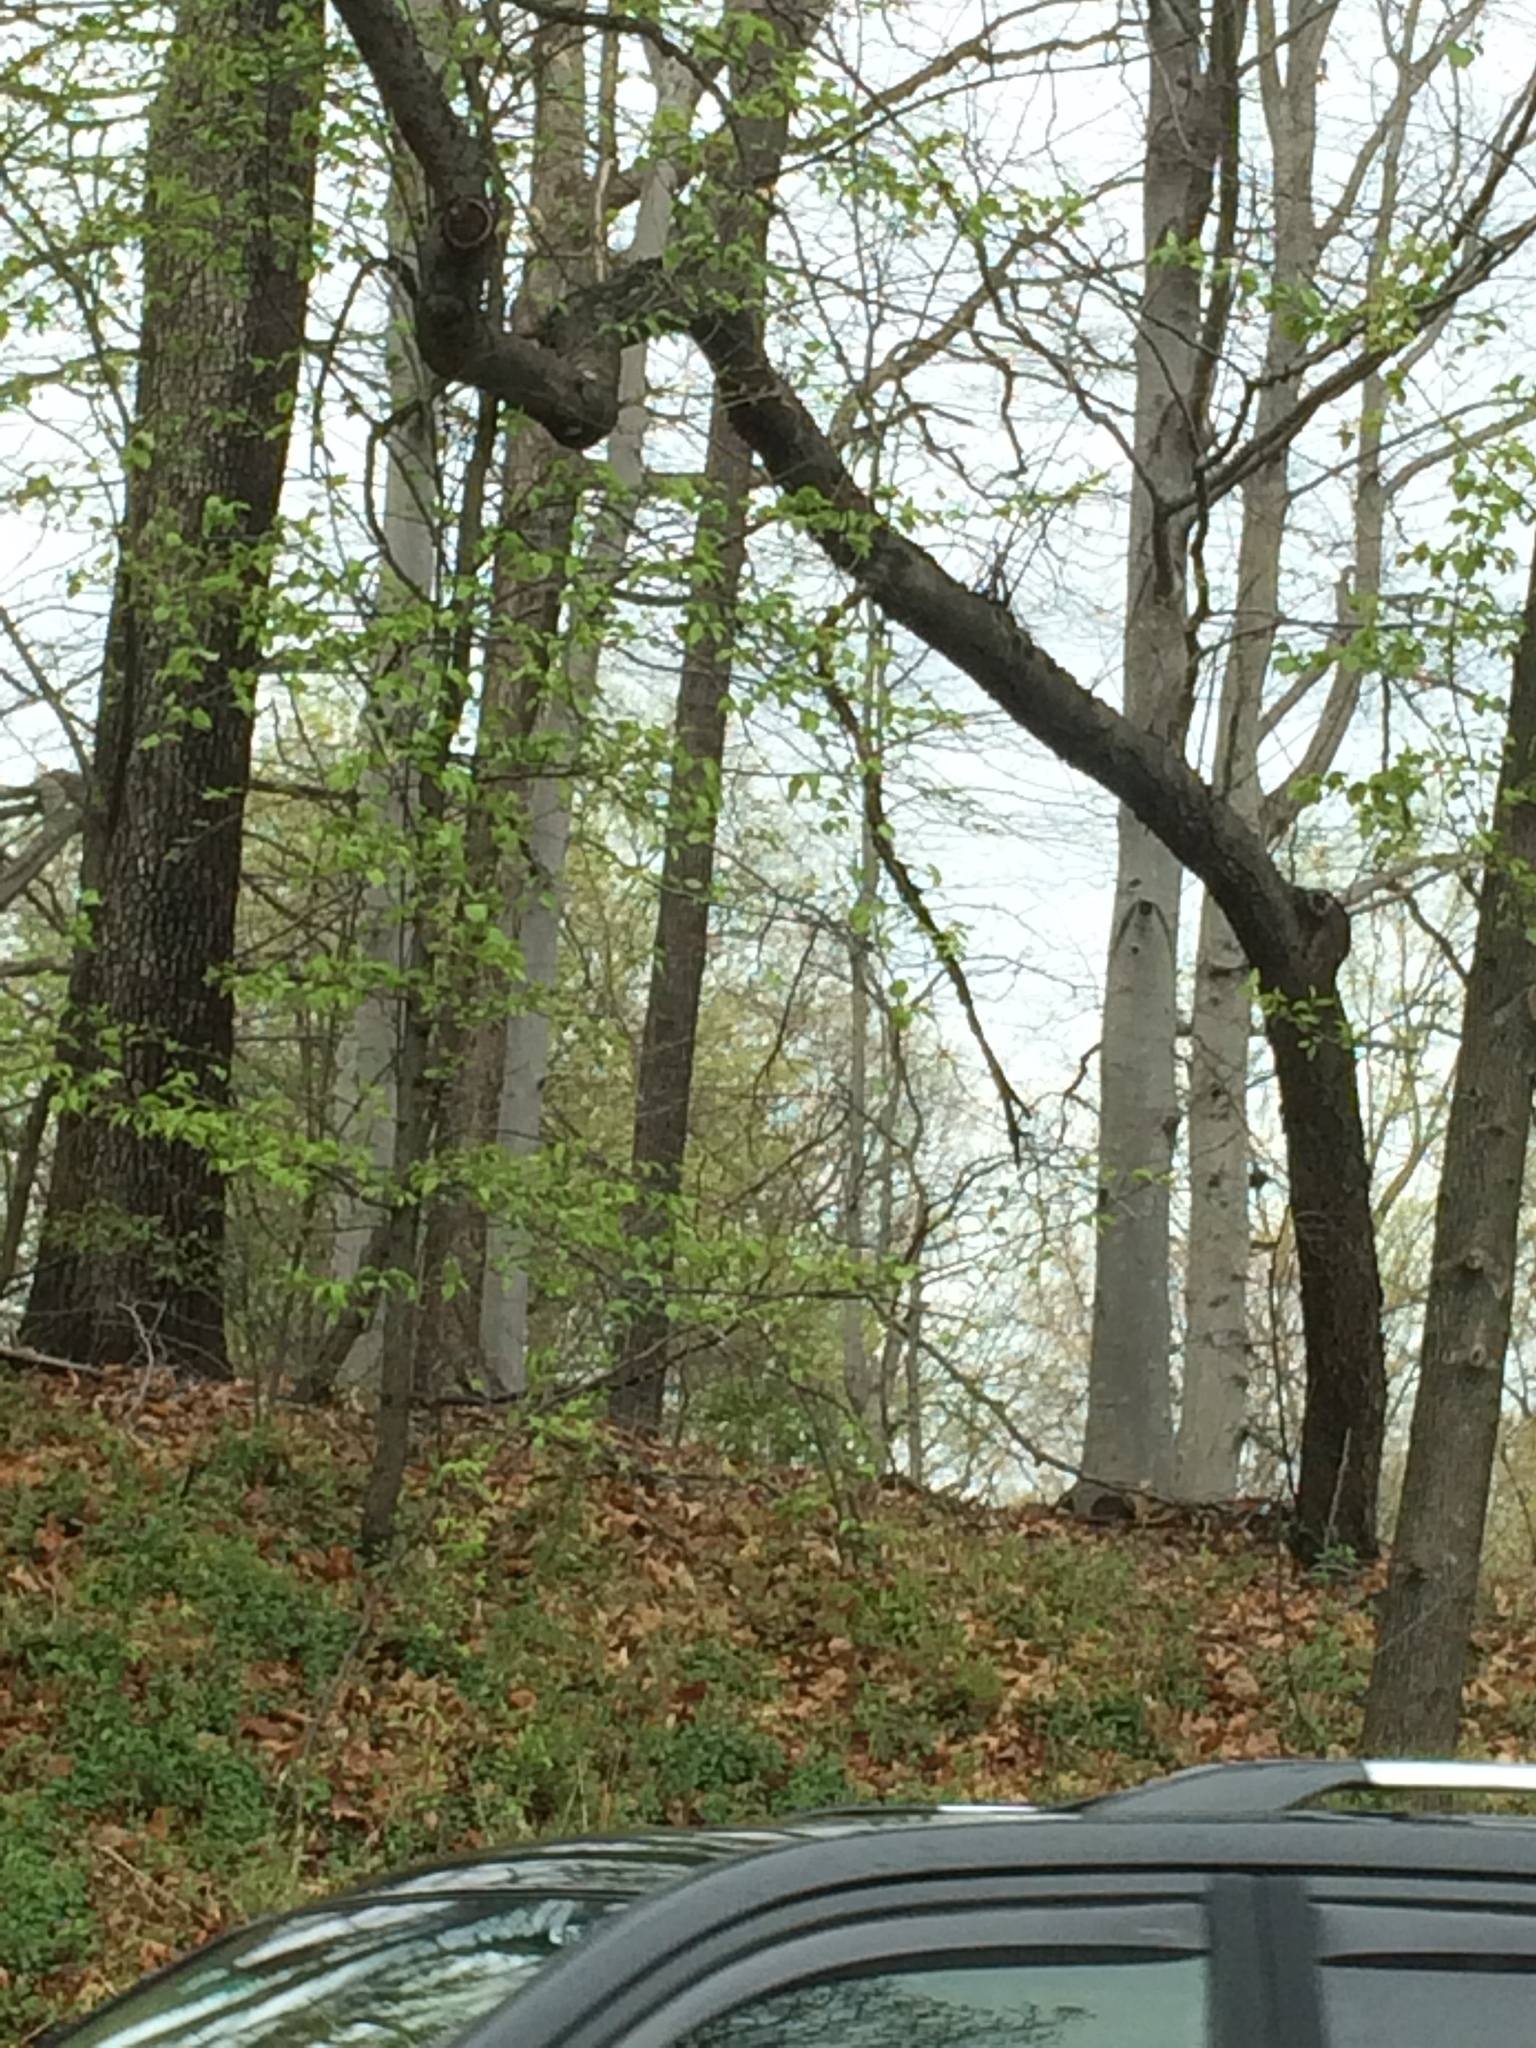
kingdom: Plantae
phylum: Tracheophyta
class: Magnoliopsida
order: Fagales
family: Fagaceae
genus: Fagus
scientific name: Fagus grandifolia
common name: American beech
